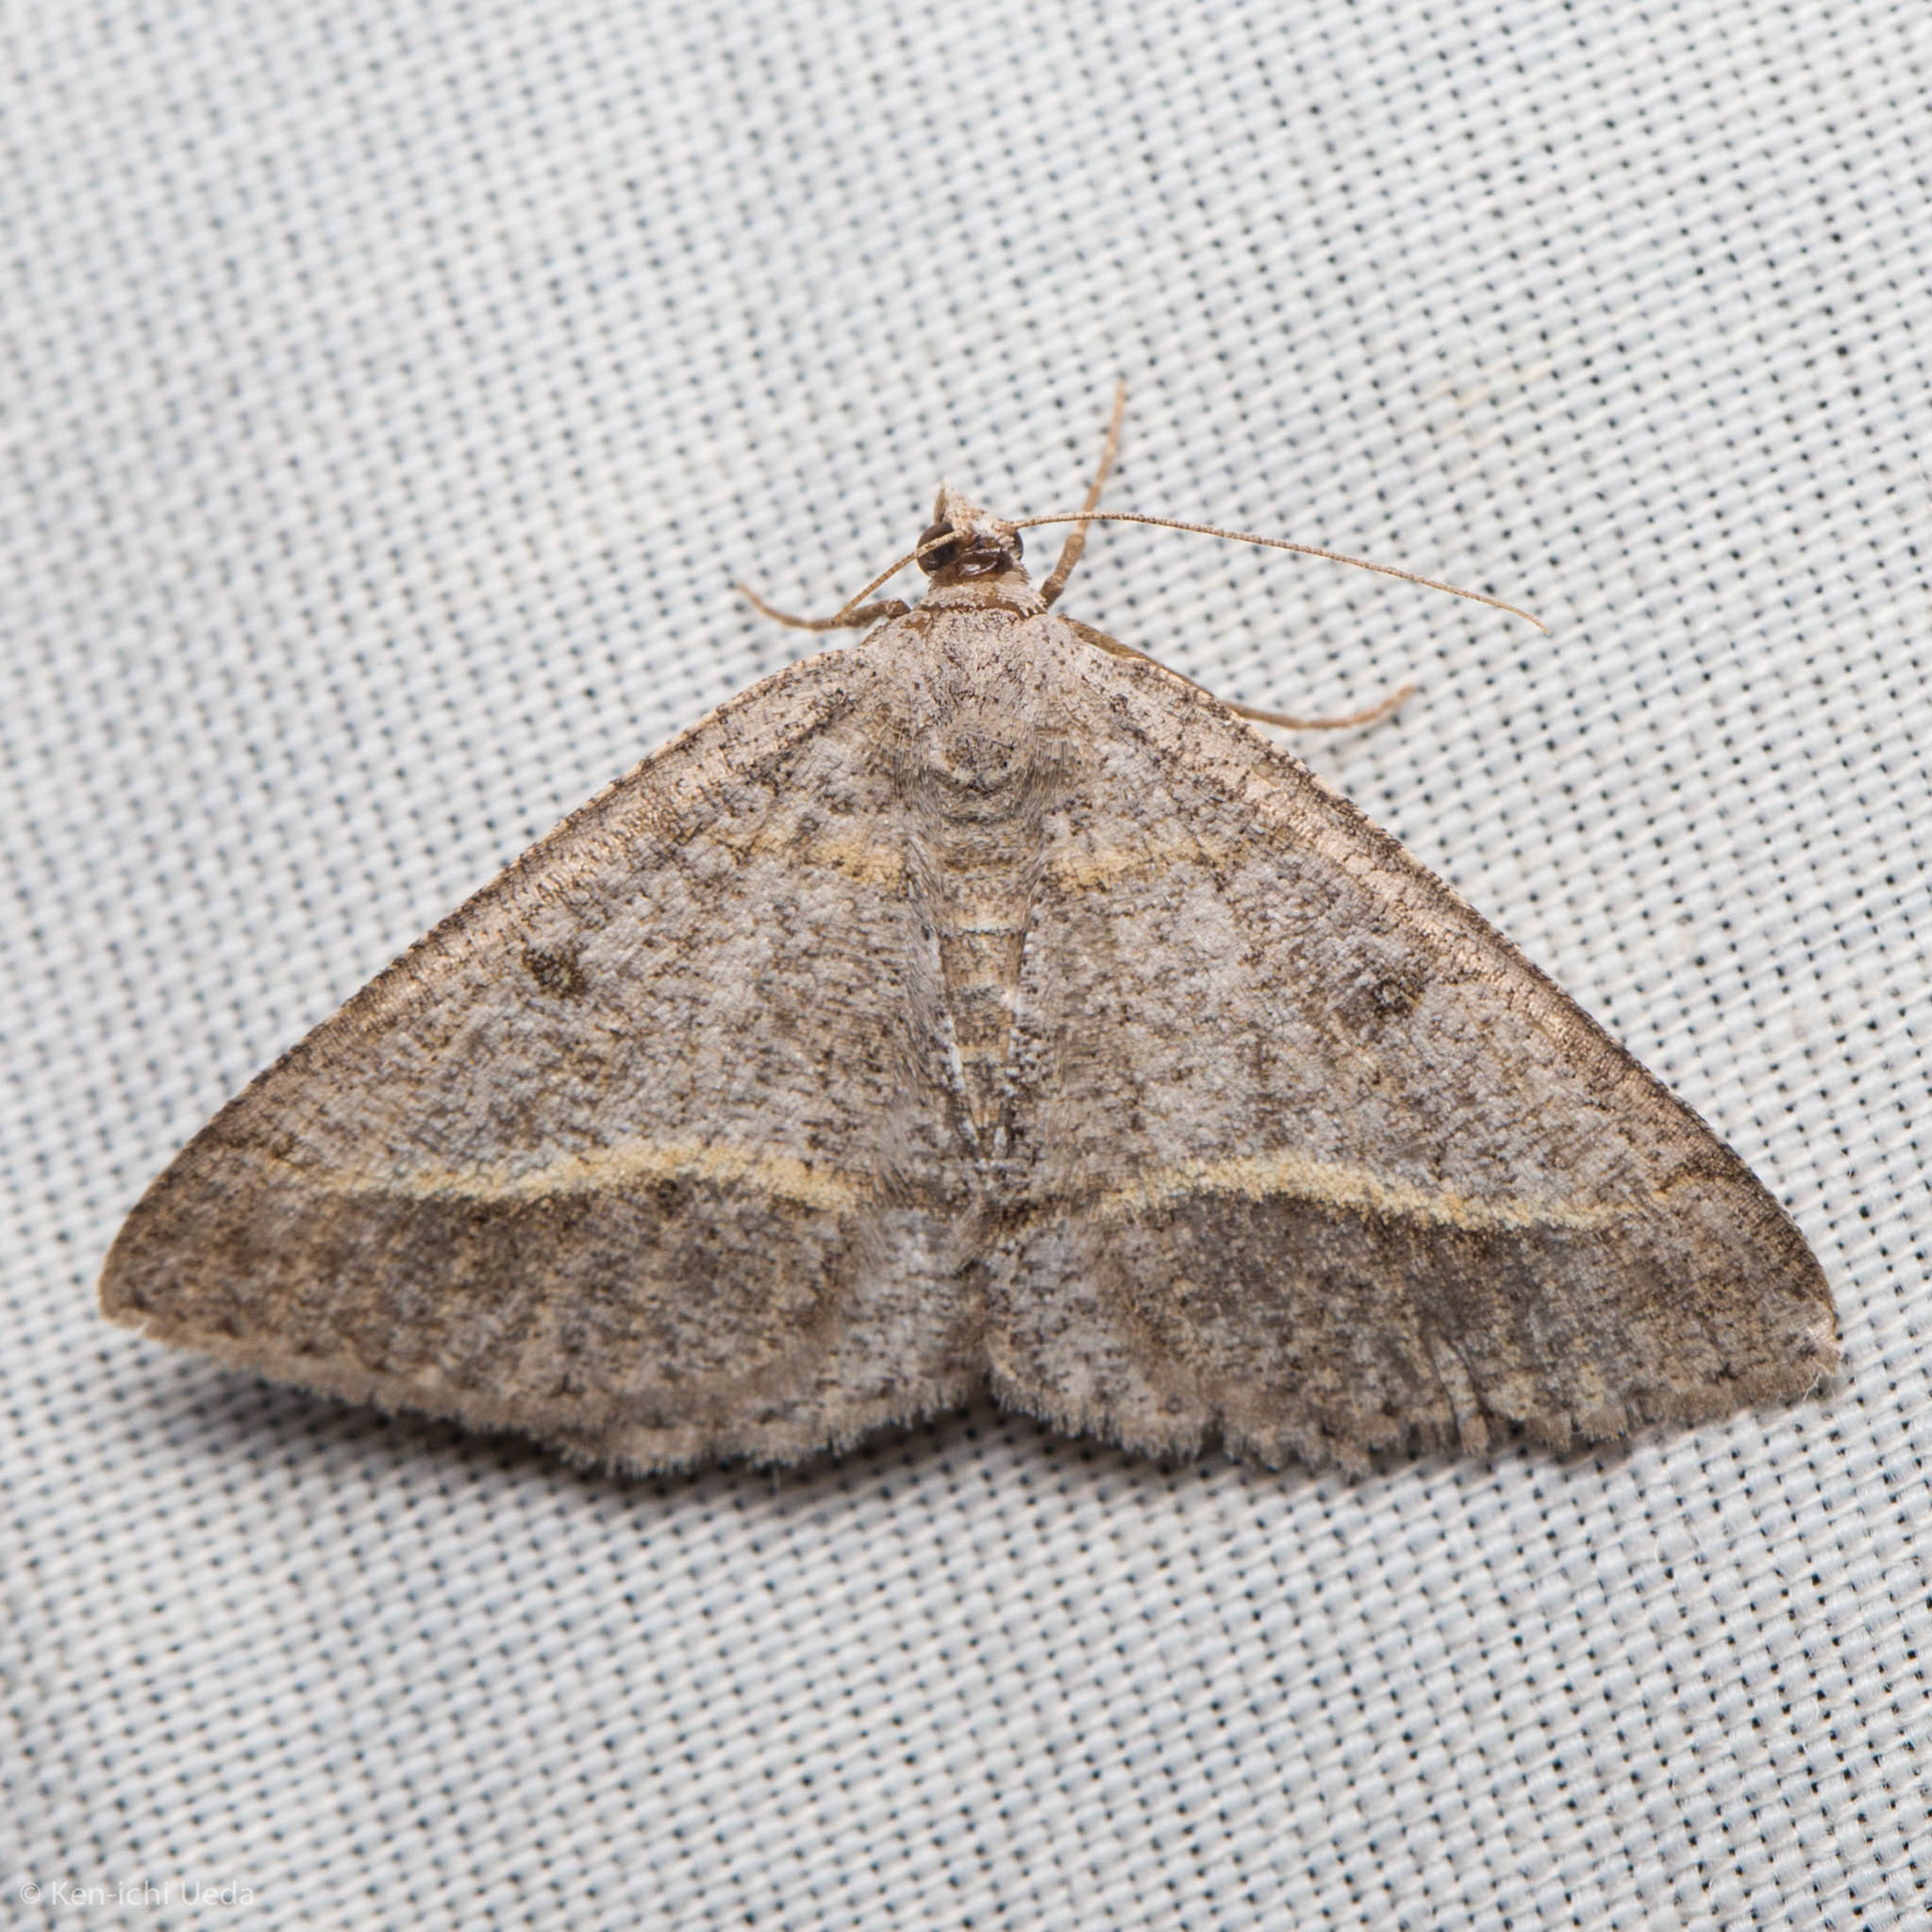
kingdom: Animalia
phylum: Arthropoda
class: Insecta
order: Lepidoptera
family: Geometridae
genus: Digrammia
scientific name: Digrammia neptaria
